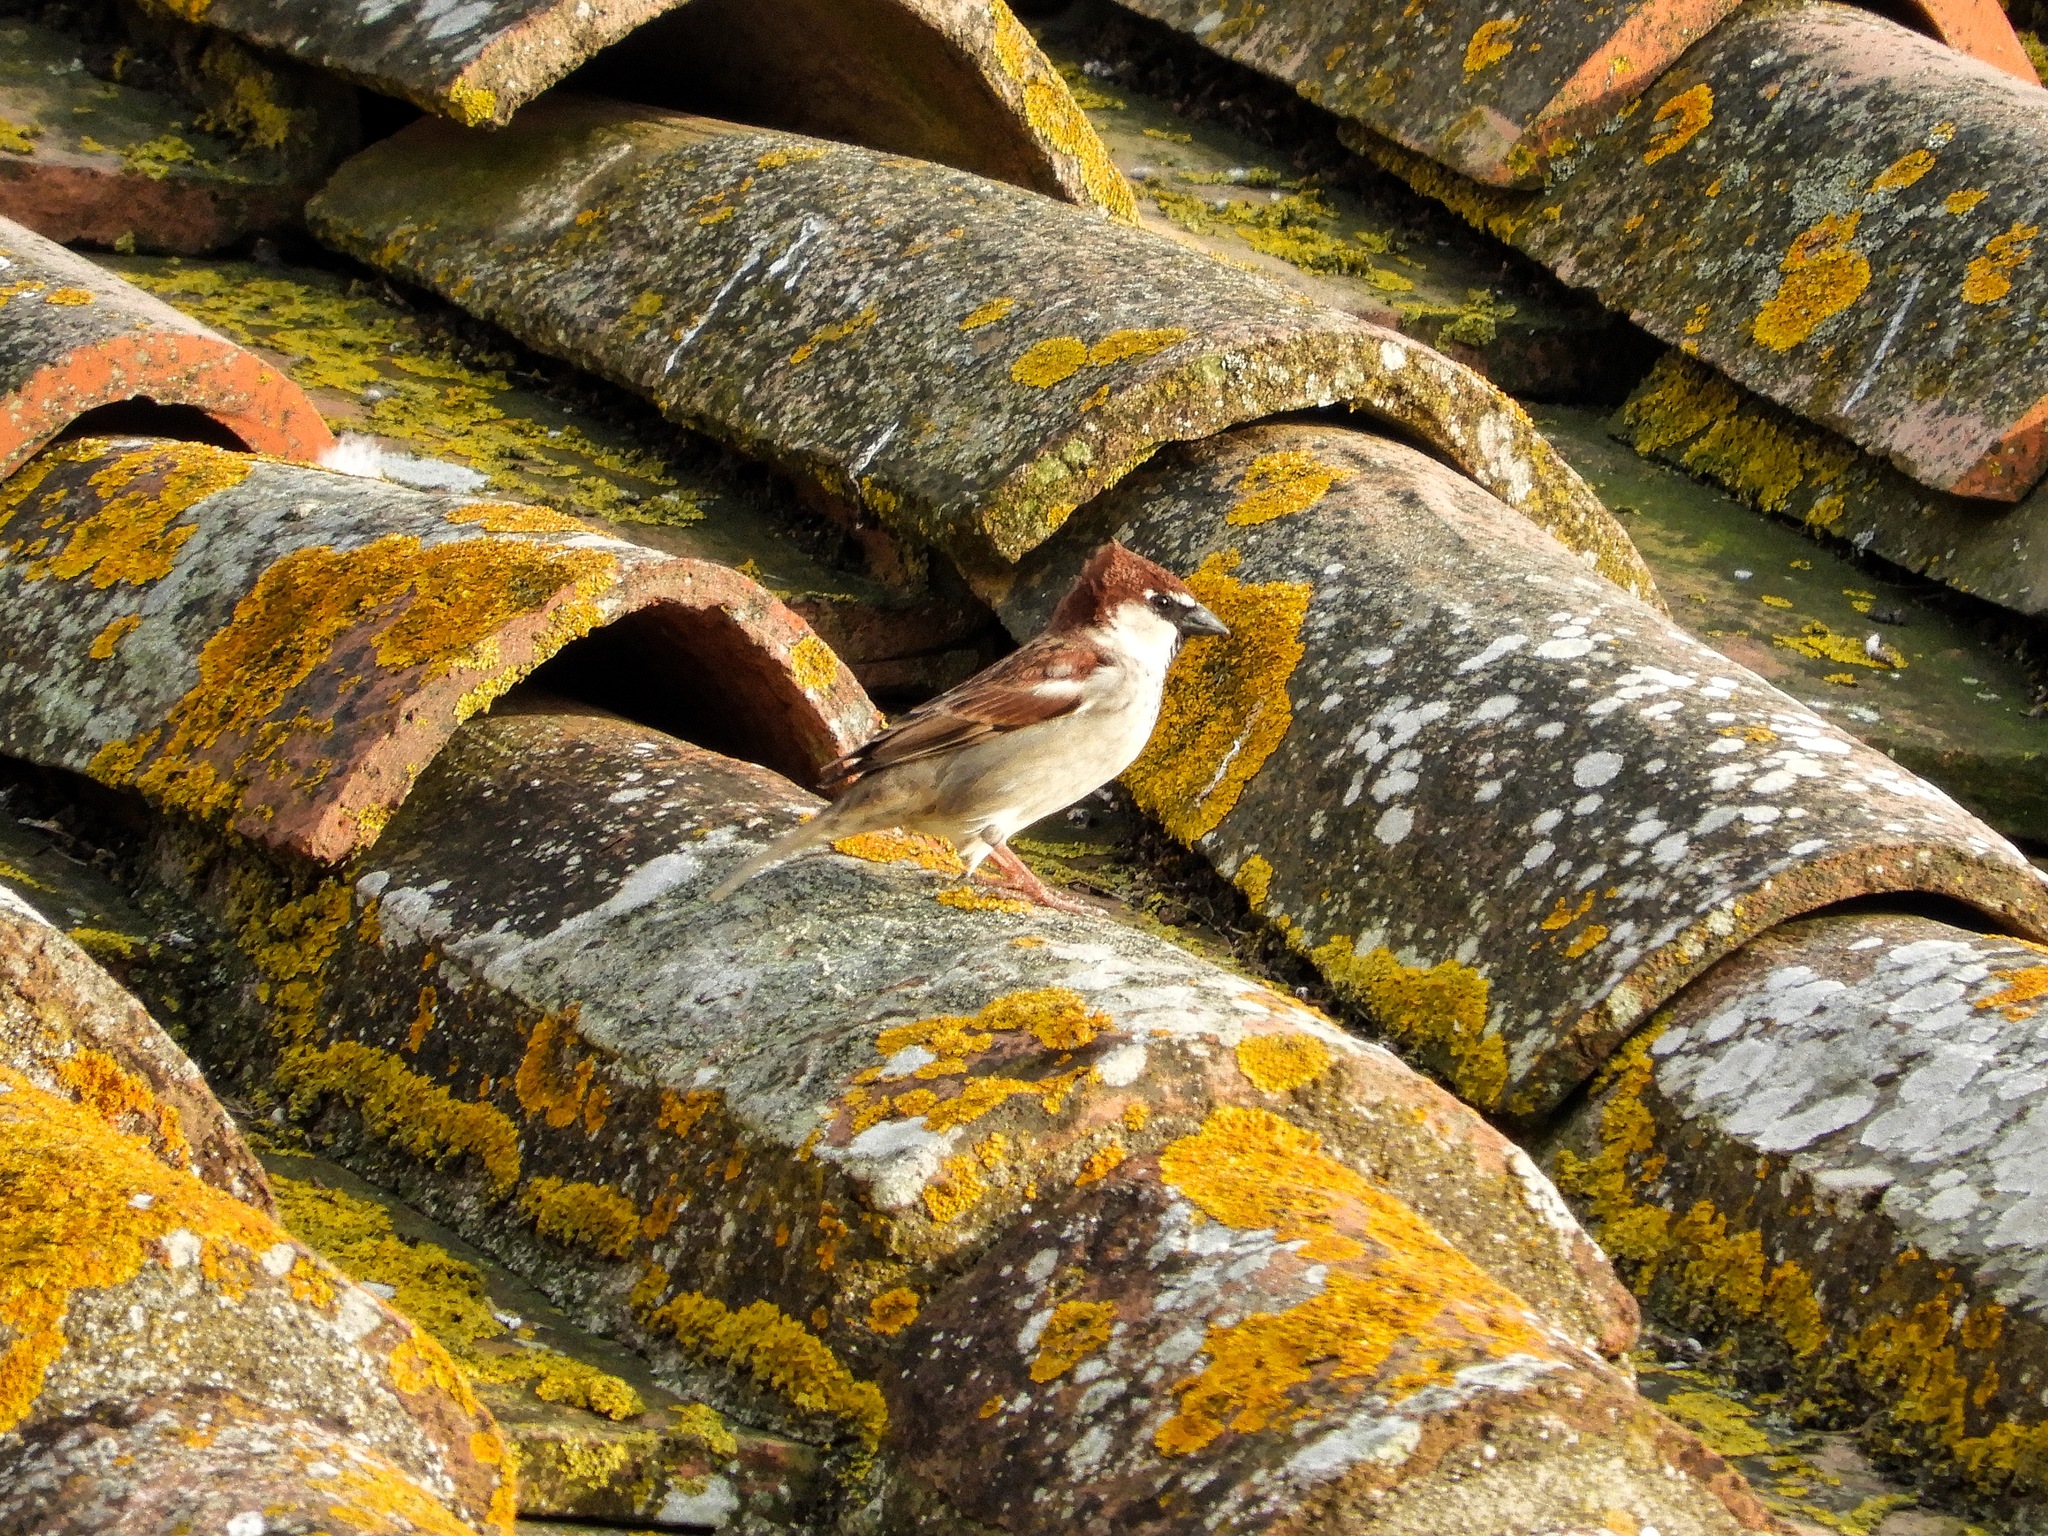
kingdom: Animalia
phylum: Chordata
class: Aves
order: Passeriformes
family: Passeridae
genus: Passer
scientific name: Passer italiae
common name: Italian sparrow
